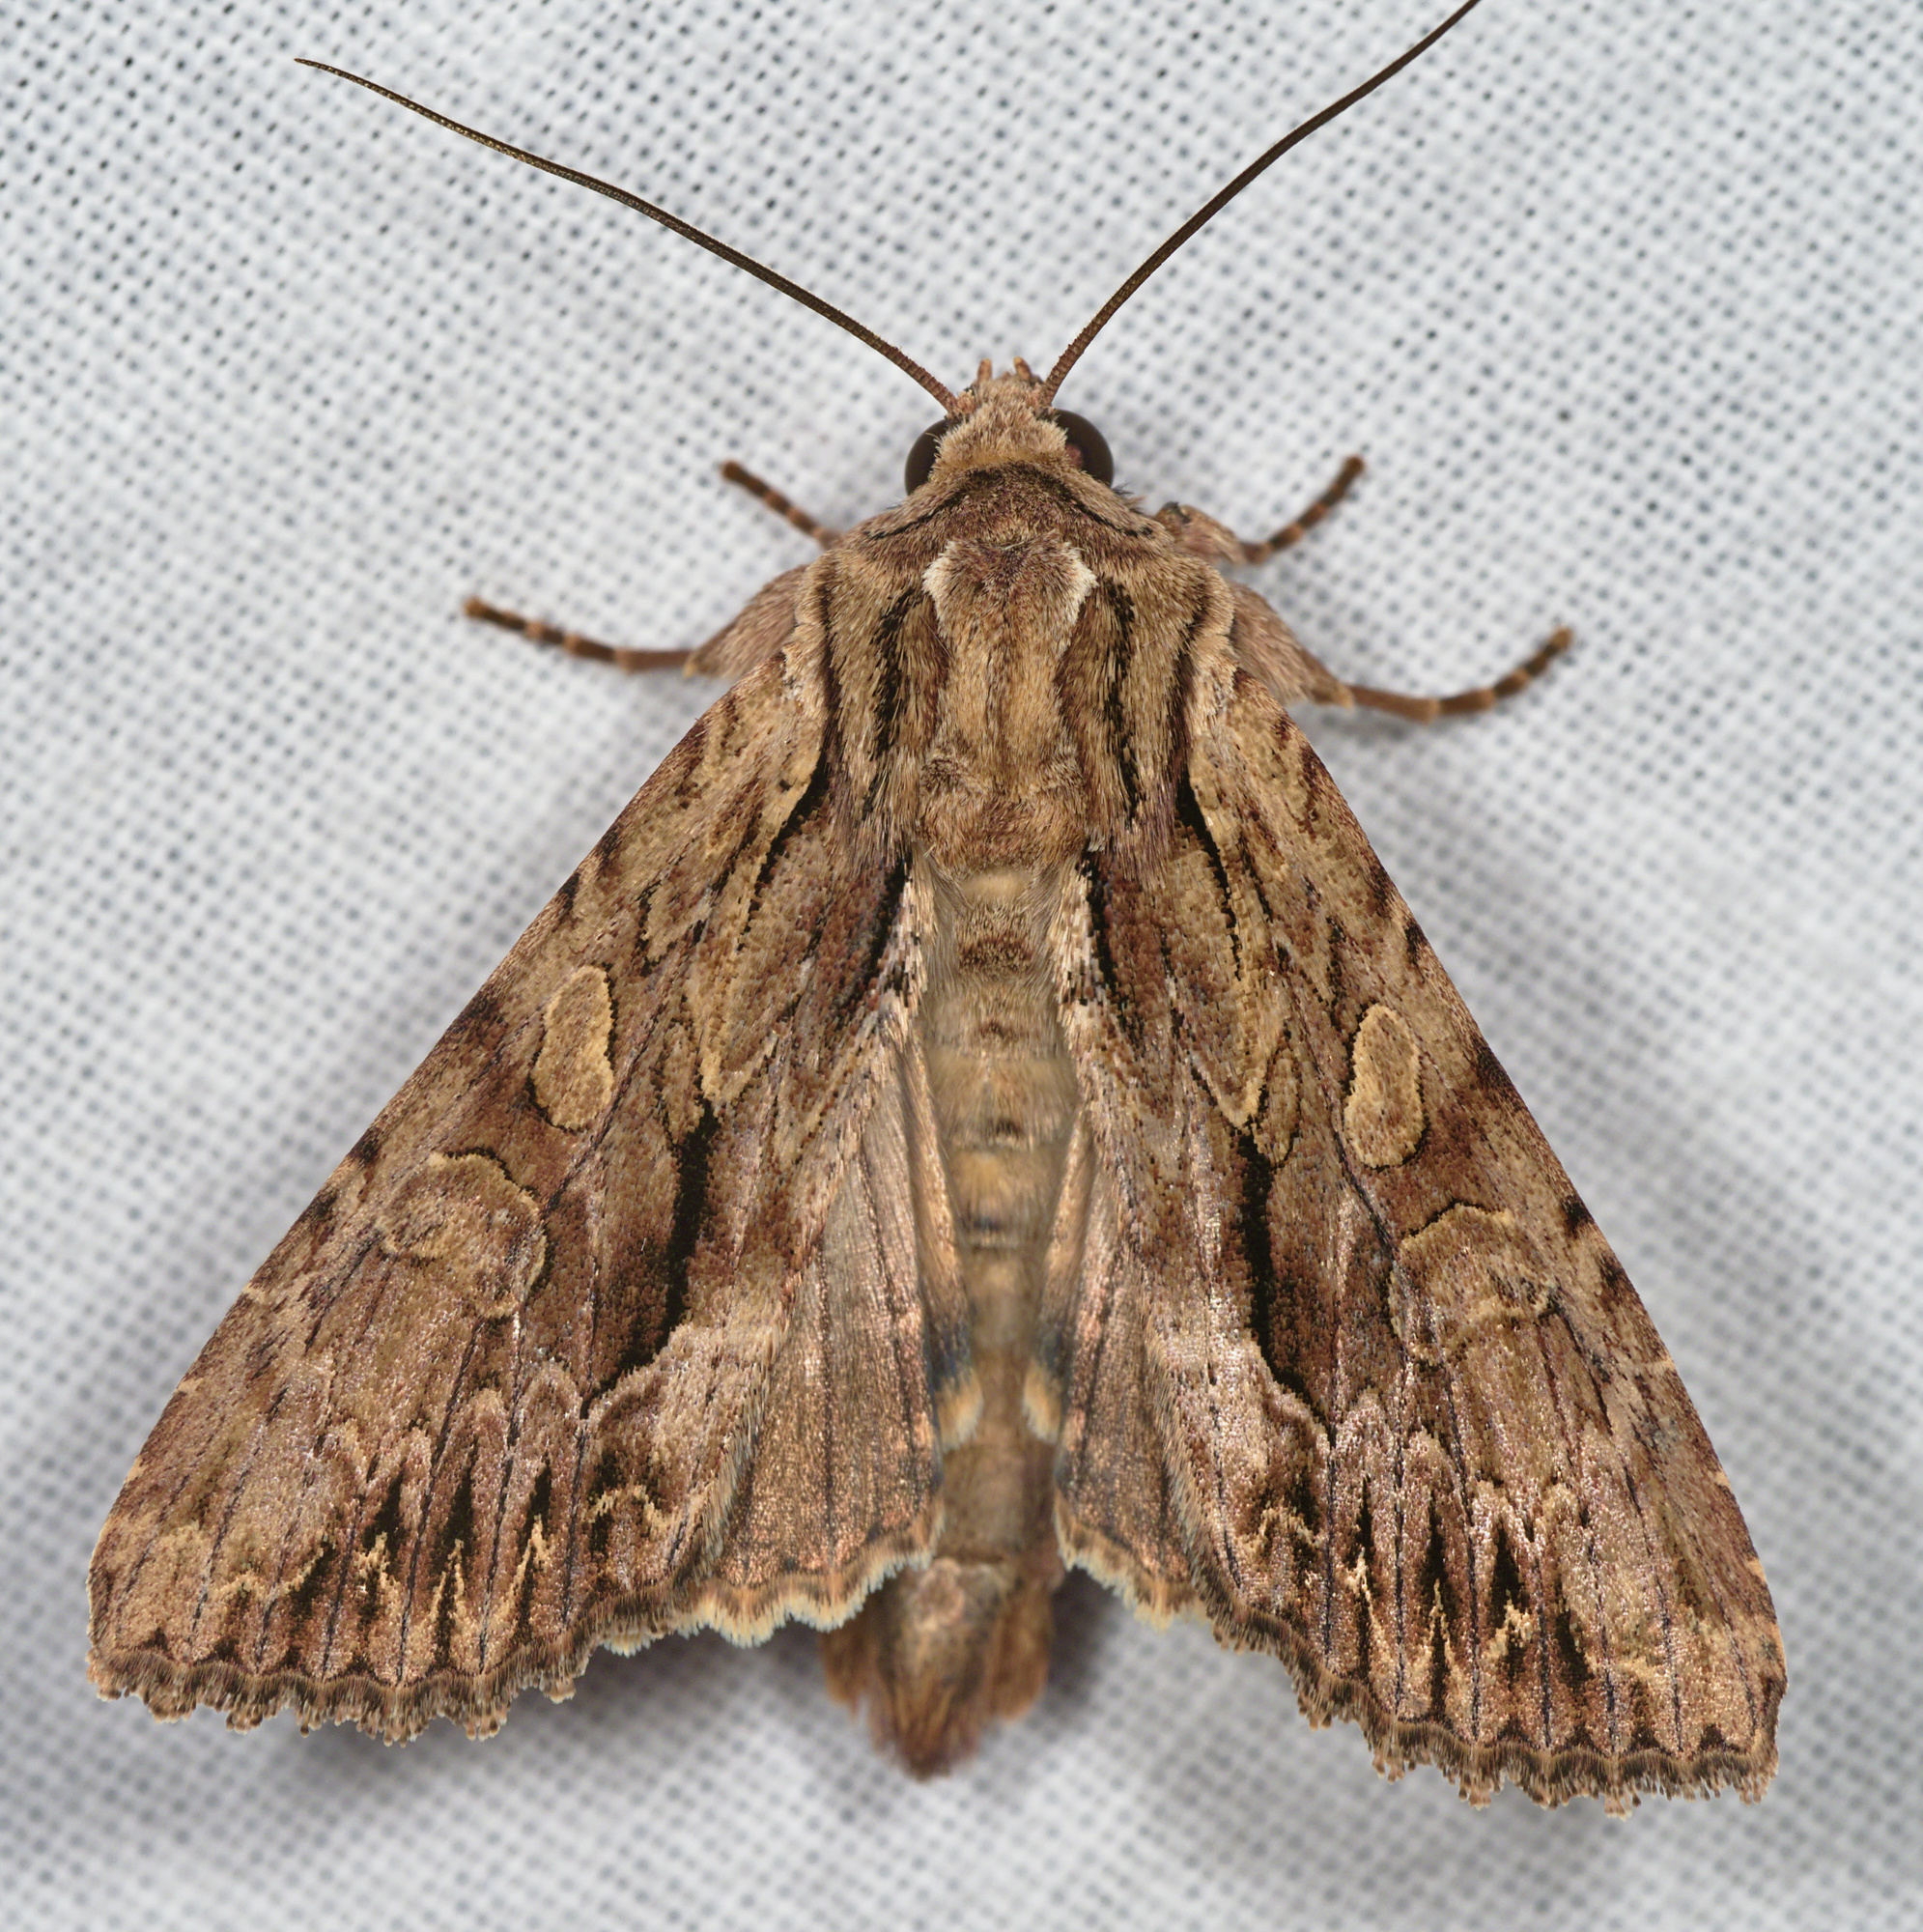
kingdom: Animalia
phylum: Arthropoda
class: Insecta
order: Lepidoptera
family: Noctuidae
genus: Apamea
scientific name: Apamea monoglypha
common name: Dark arches
